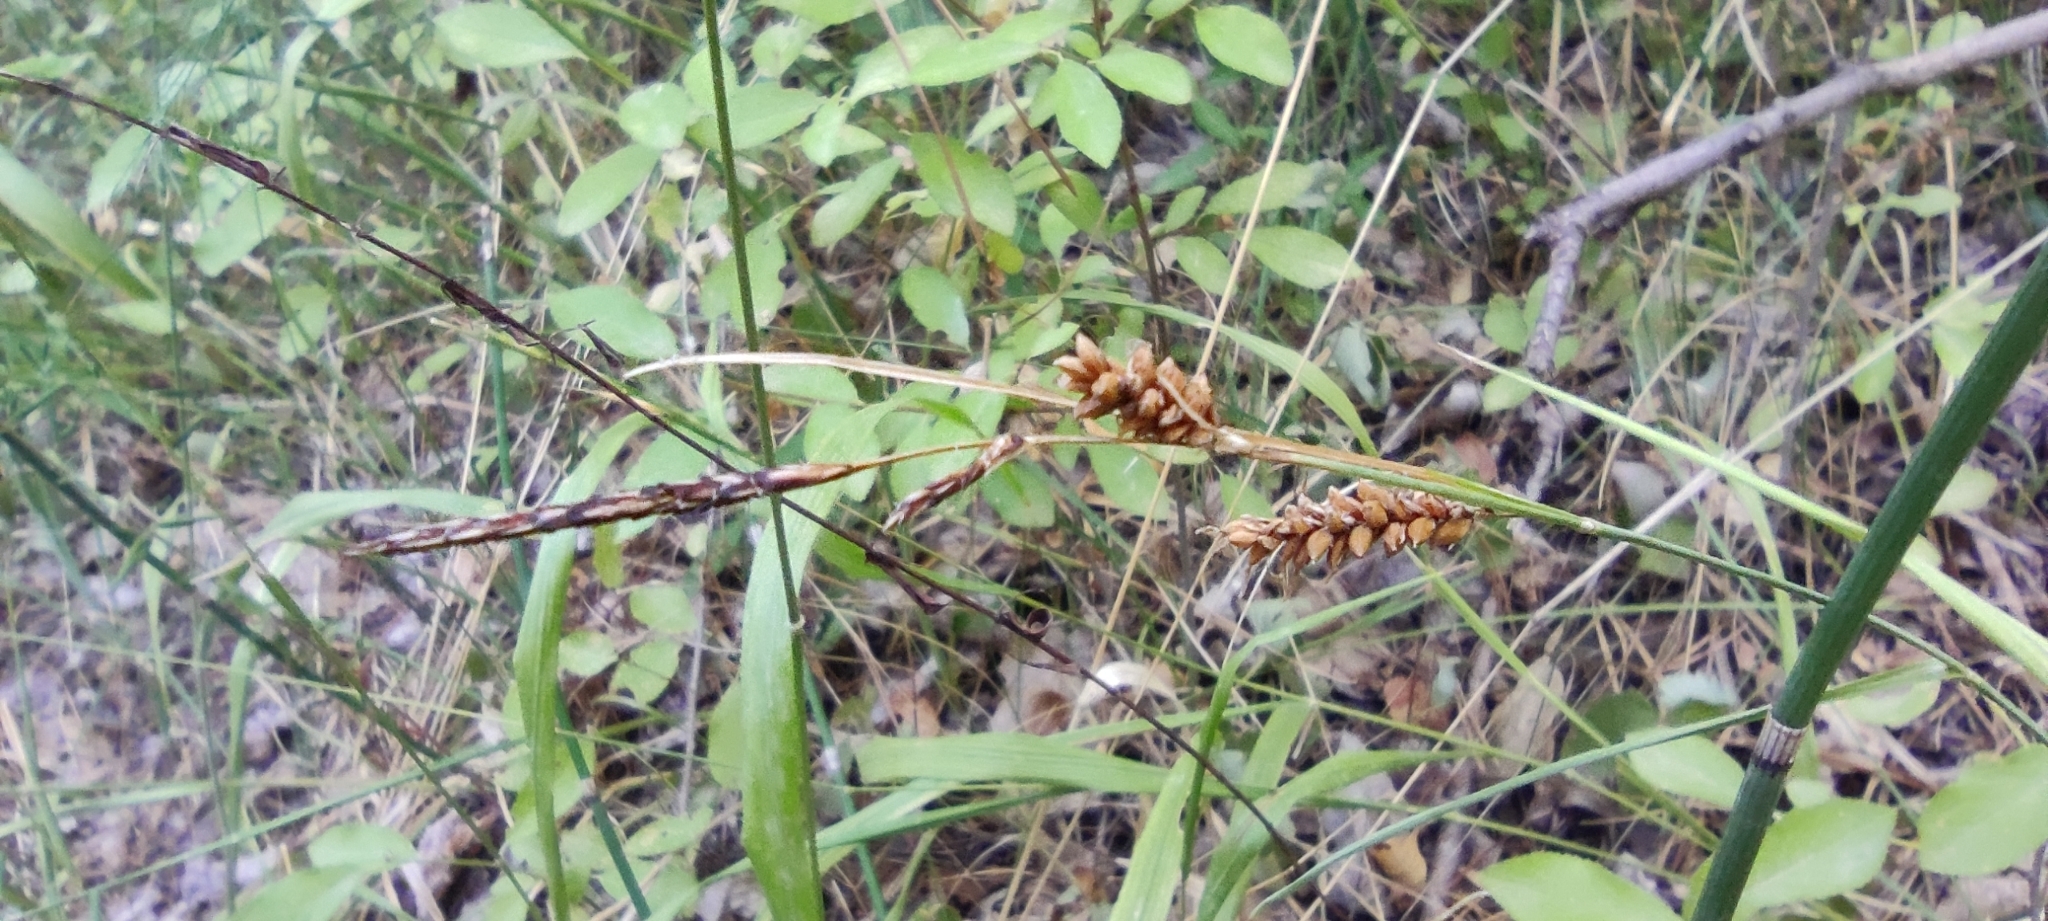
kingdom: Plantae
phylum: Tracheophyta
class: Liliopsida
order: Poales
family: Cyperaceae
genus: Carex
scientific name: Carex flacca
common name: Glaucous sedge
